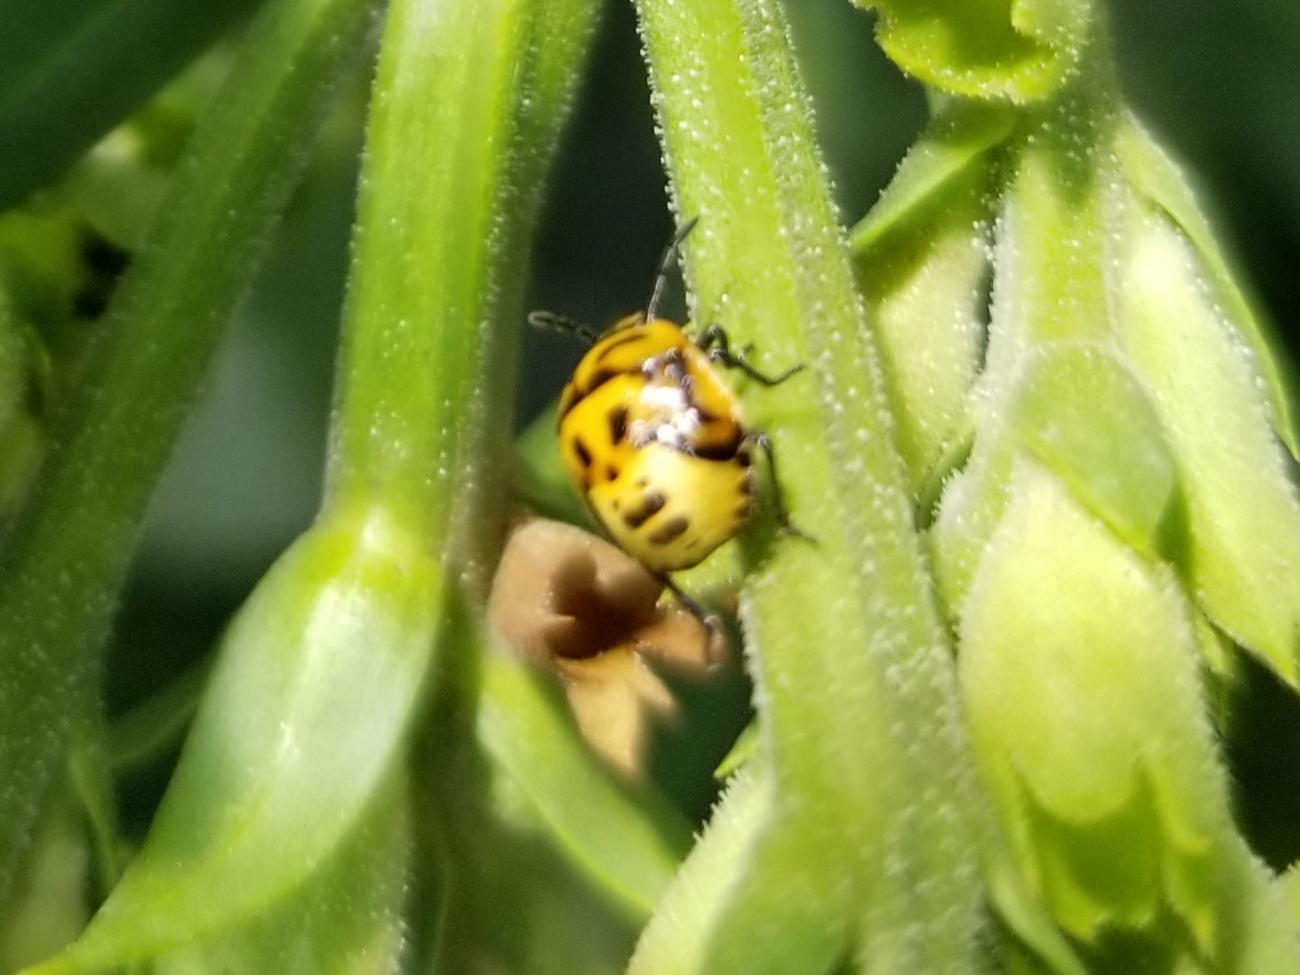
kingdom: Animalia
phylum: Arthropoda
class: Insecta
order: Hemiptera
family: Pentatomidae
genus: Cosmopepla
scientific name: Cosmopepla lintneriana
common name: Twice-stabbed stink bug
